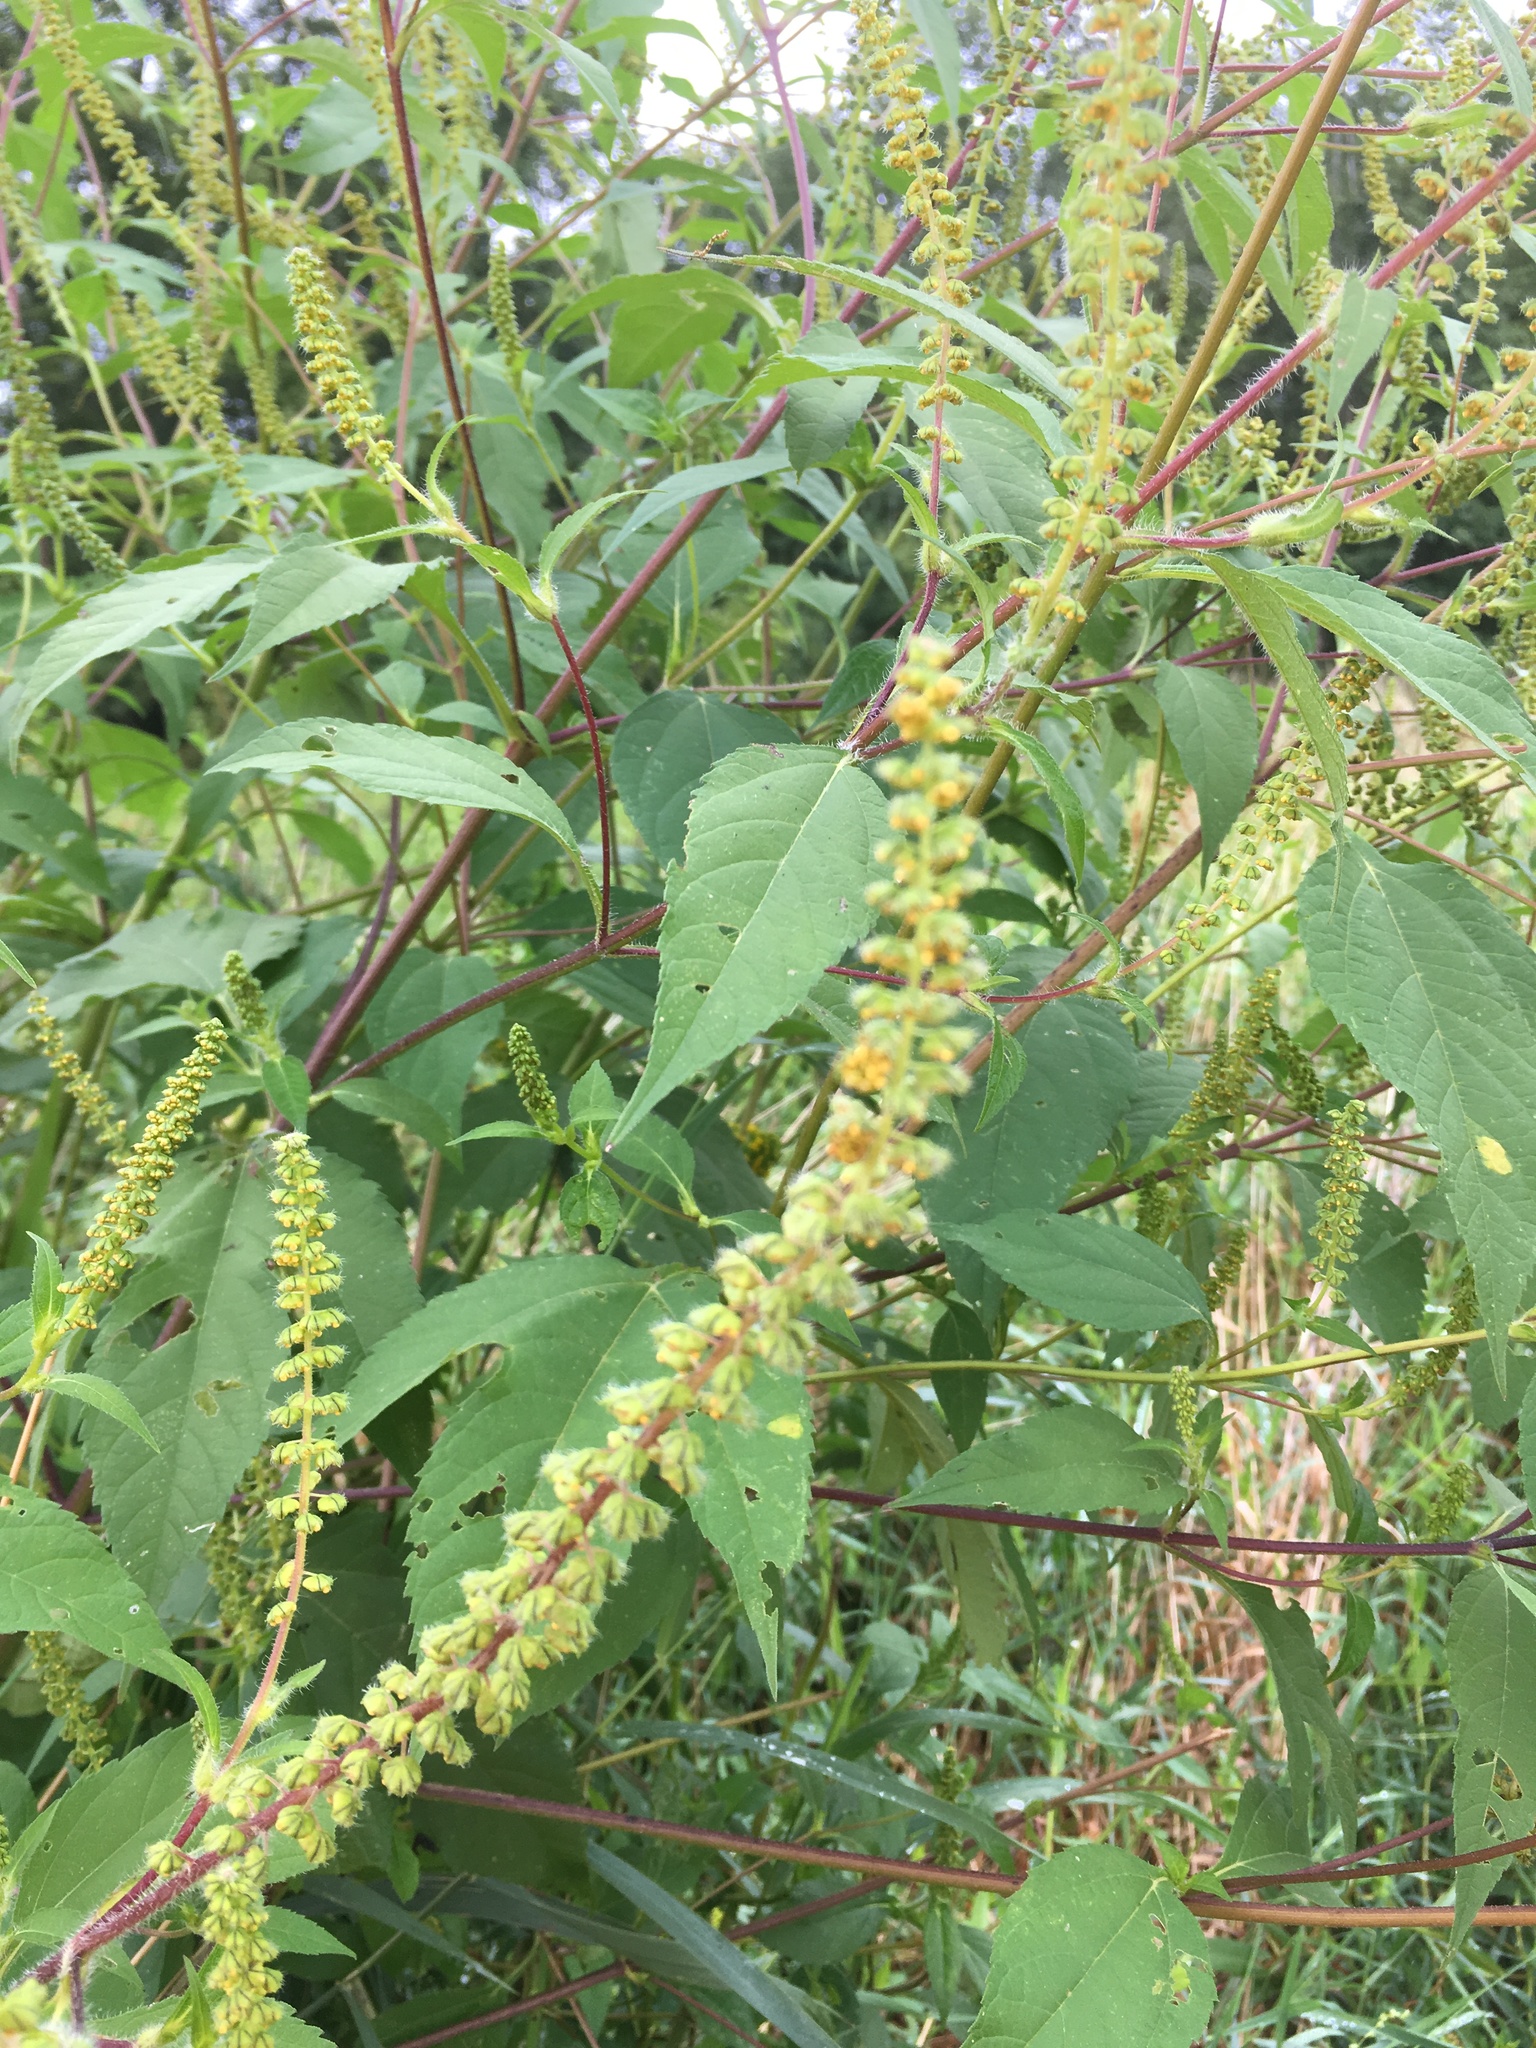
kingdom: Plantae
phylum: Tracheophyta
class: Magnoliopsida
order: Asterales
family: Asteraceae
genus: Ambrosia
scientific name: Ambrosia trifida
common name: Giant ragweed
